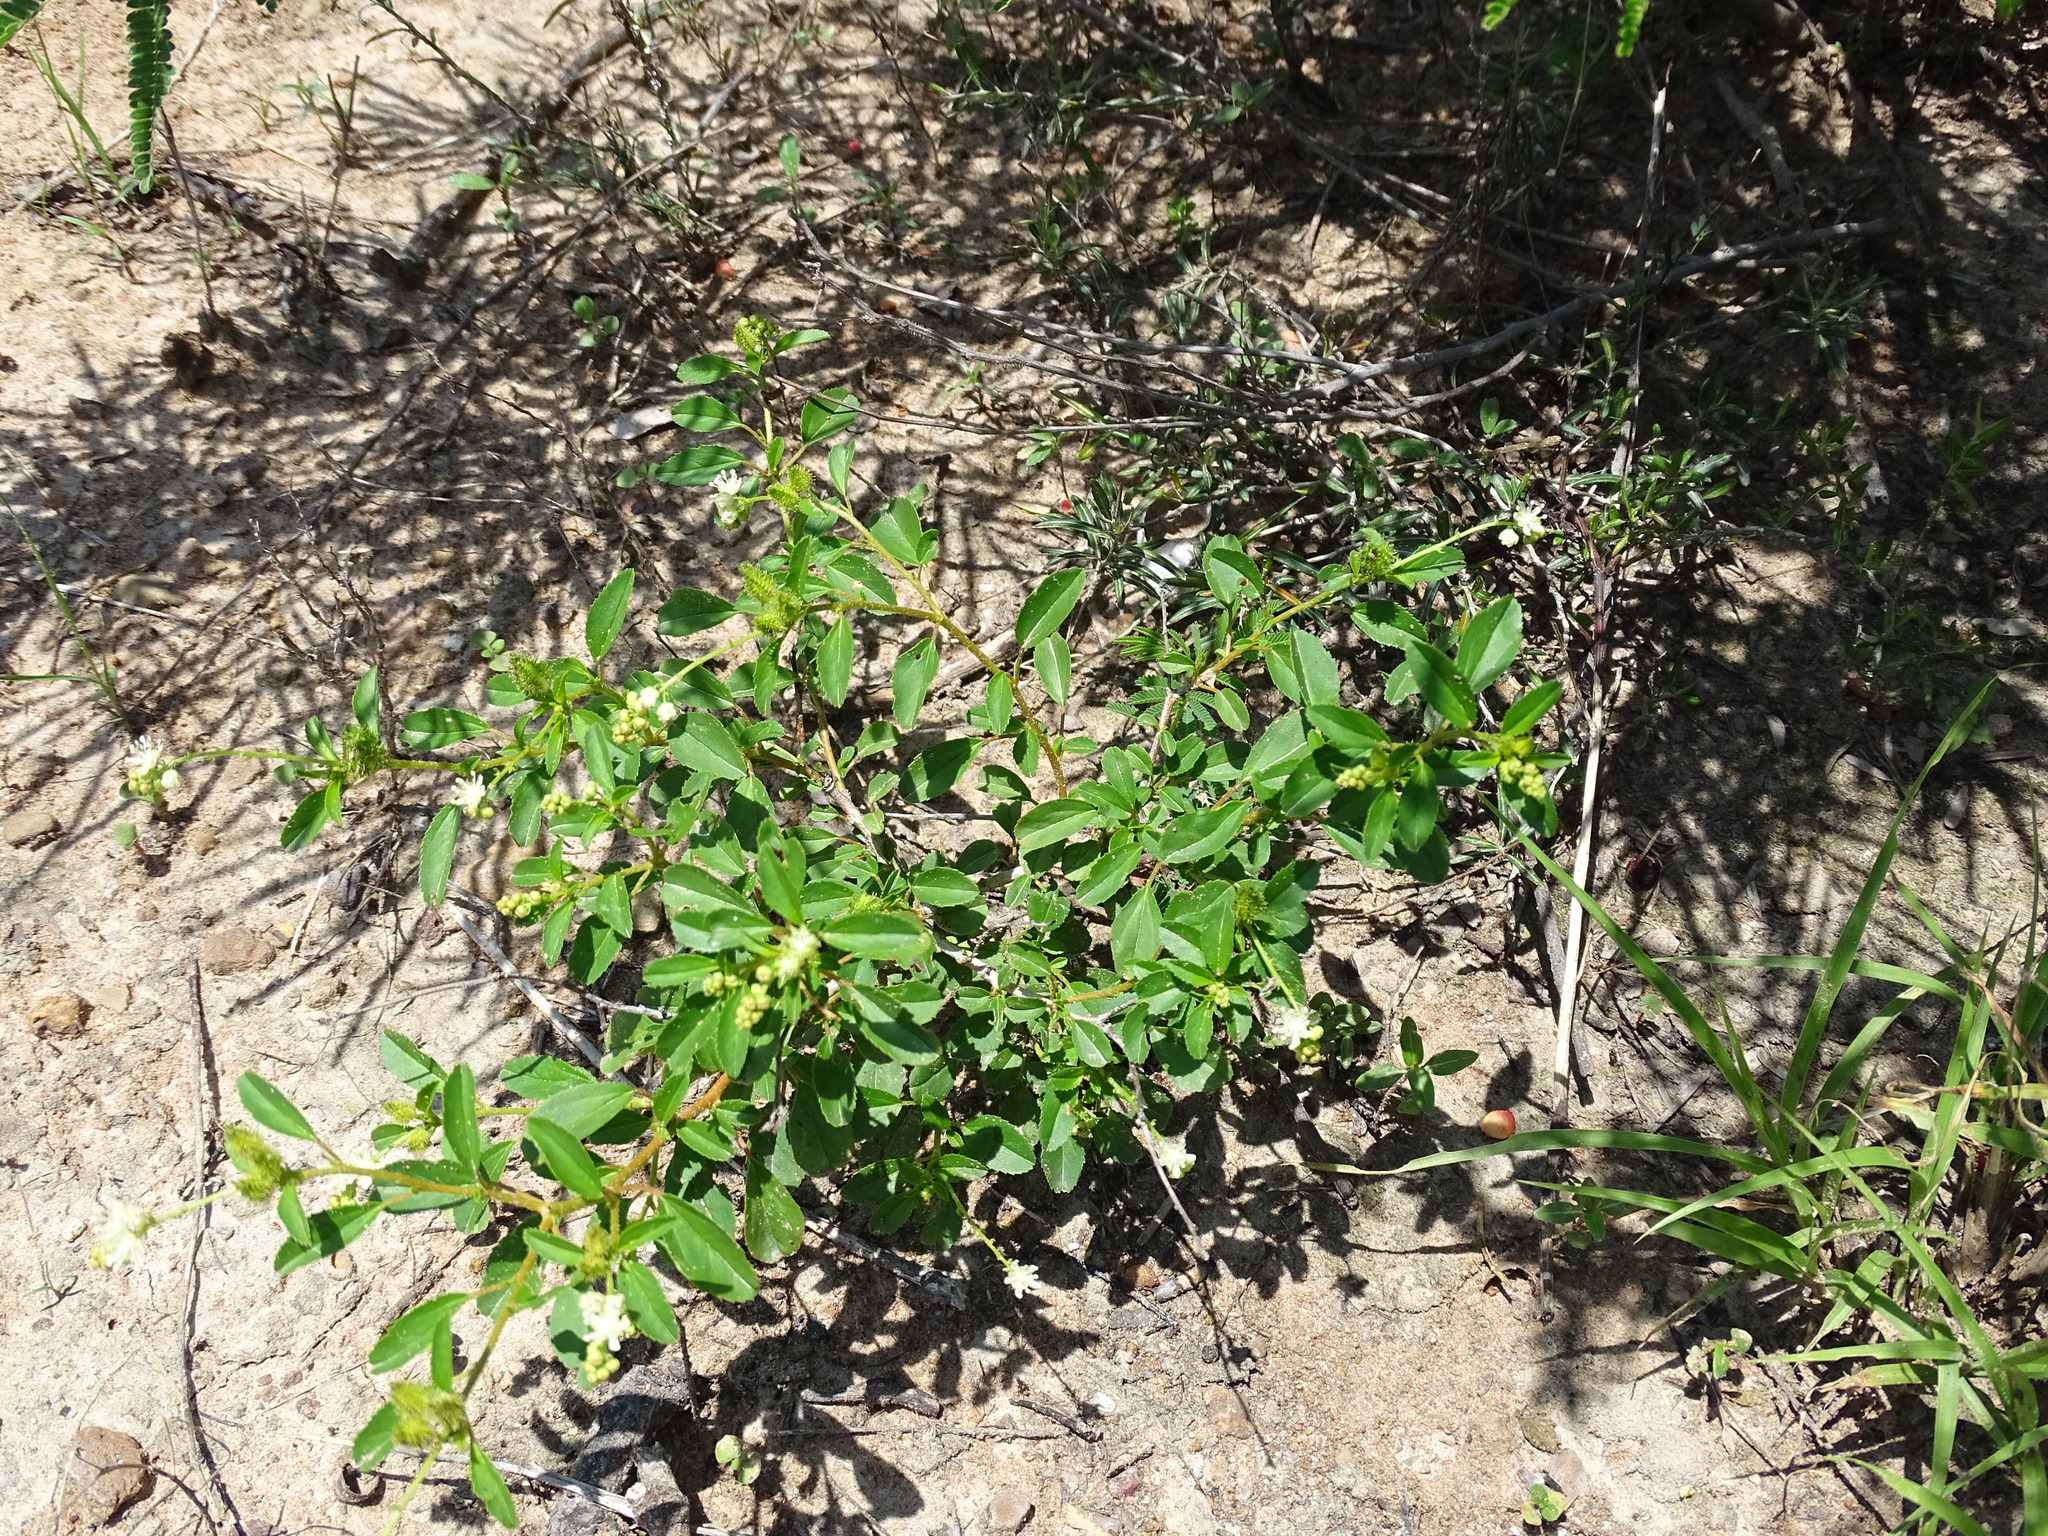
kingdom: Plantae
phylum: Tracheophyta
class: Magnoliopsida
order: Malpighiales
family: Euphorbiaceae
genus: Croton
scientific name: Croton ovalifolius
